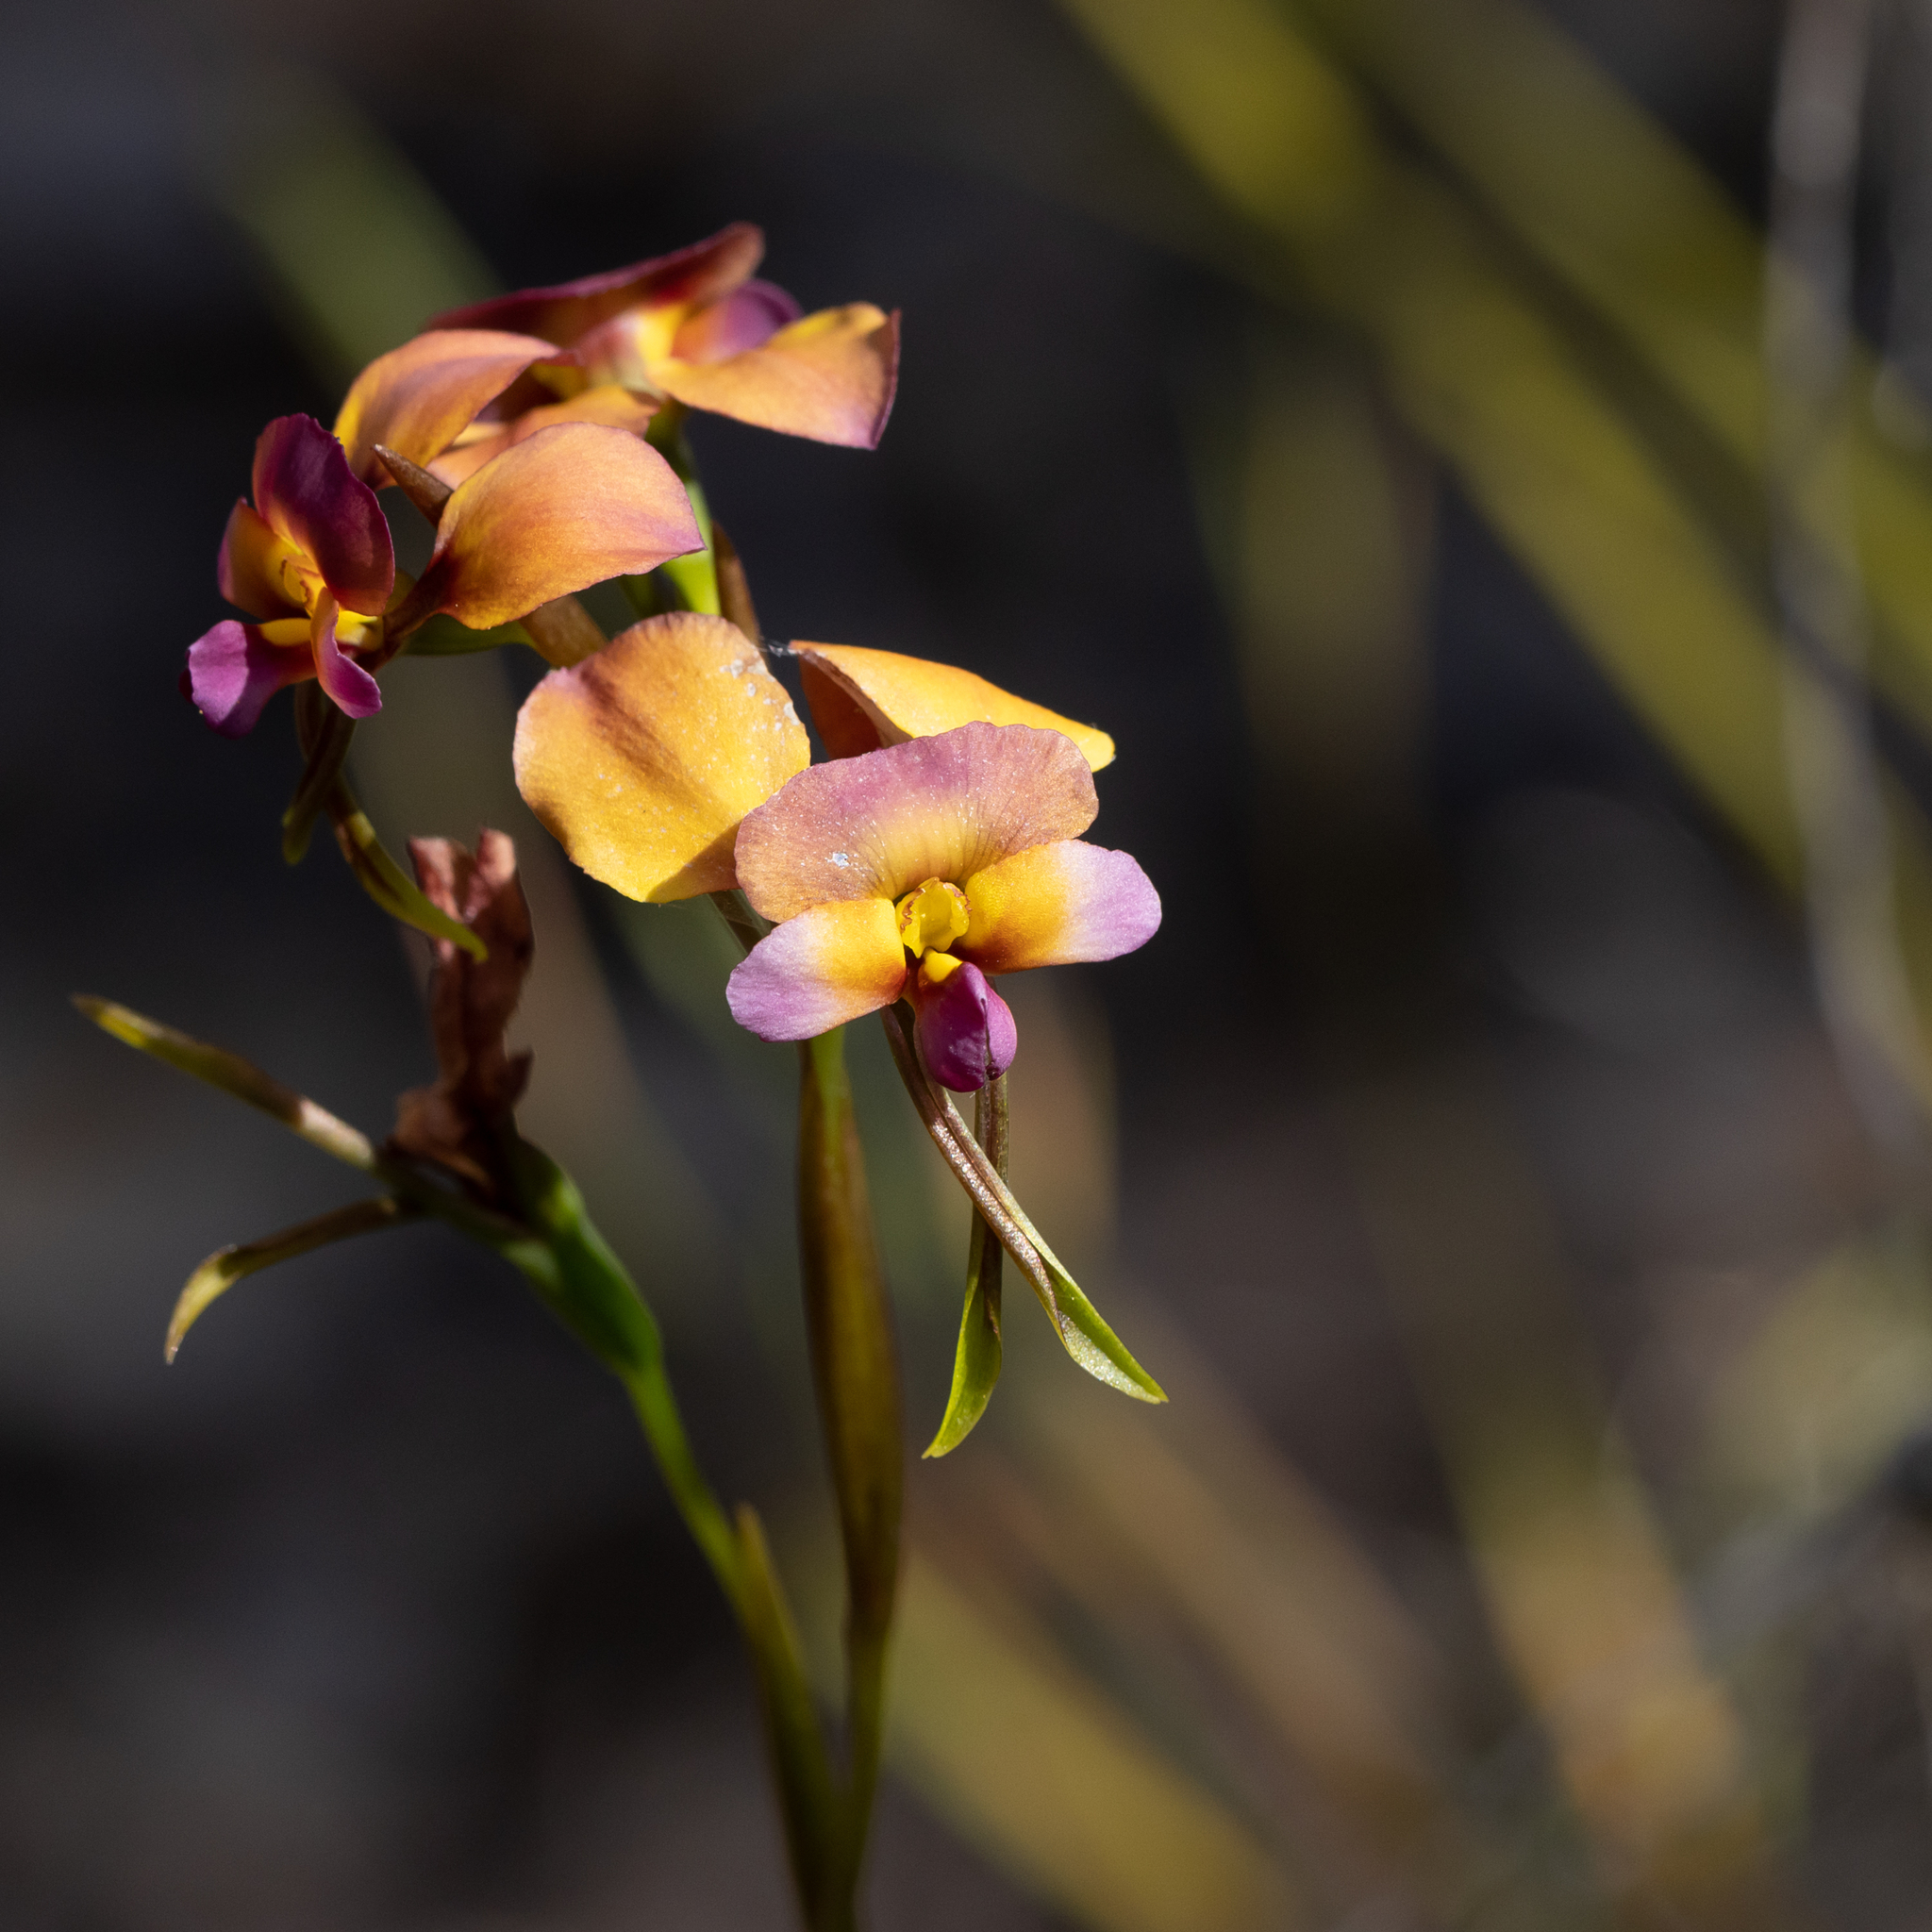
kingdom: Plantae
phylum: Tracheophyta
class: Liliopsida
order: Asparagales
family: Orchidaceae
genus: Diuris
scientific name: Diuris longifolia
